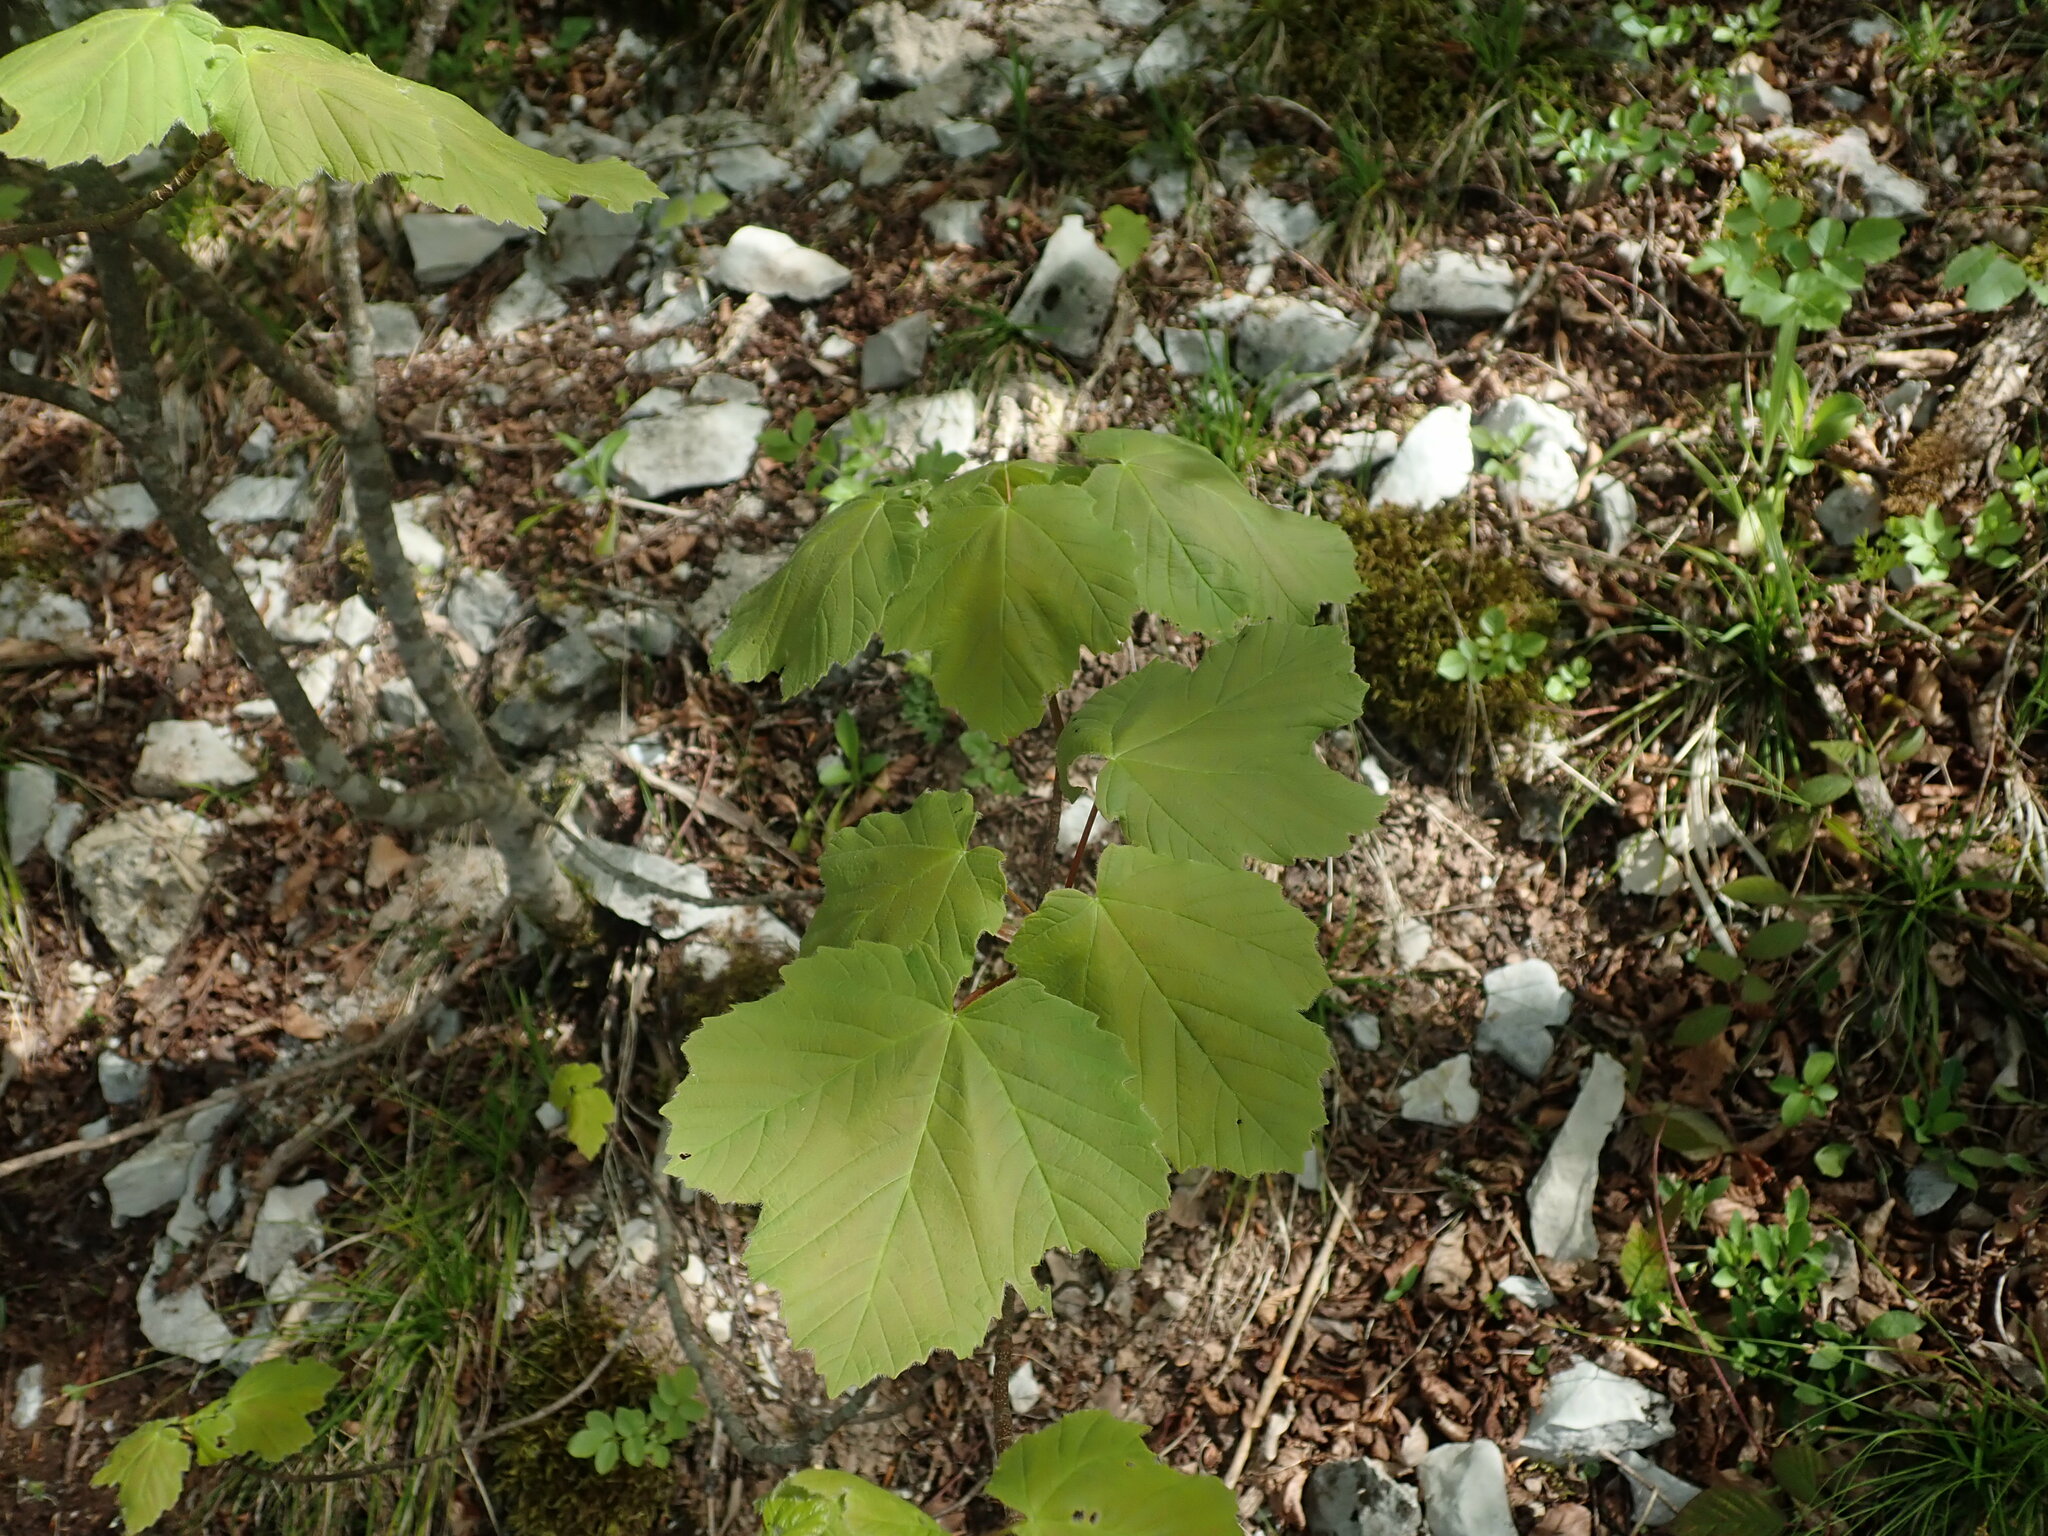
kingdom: Plantae
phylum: Tracheophyta
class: Magnoliopsida
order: Sapindales
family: Sapindaceae
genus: Acer
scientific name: Acer opalus
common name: Italian maple
